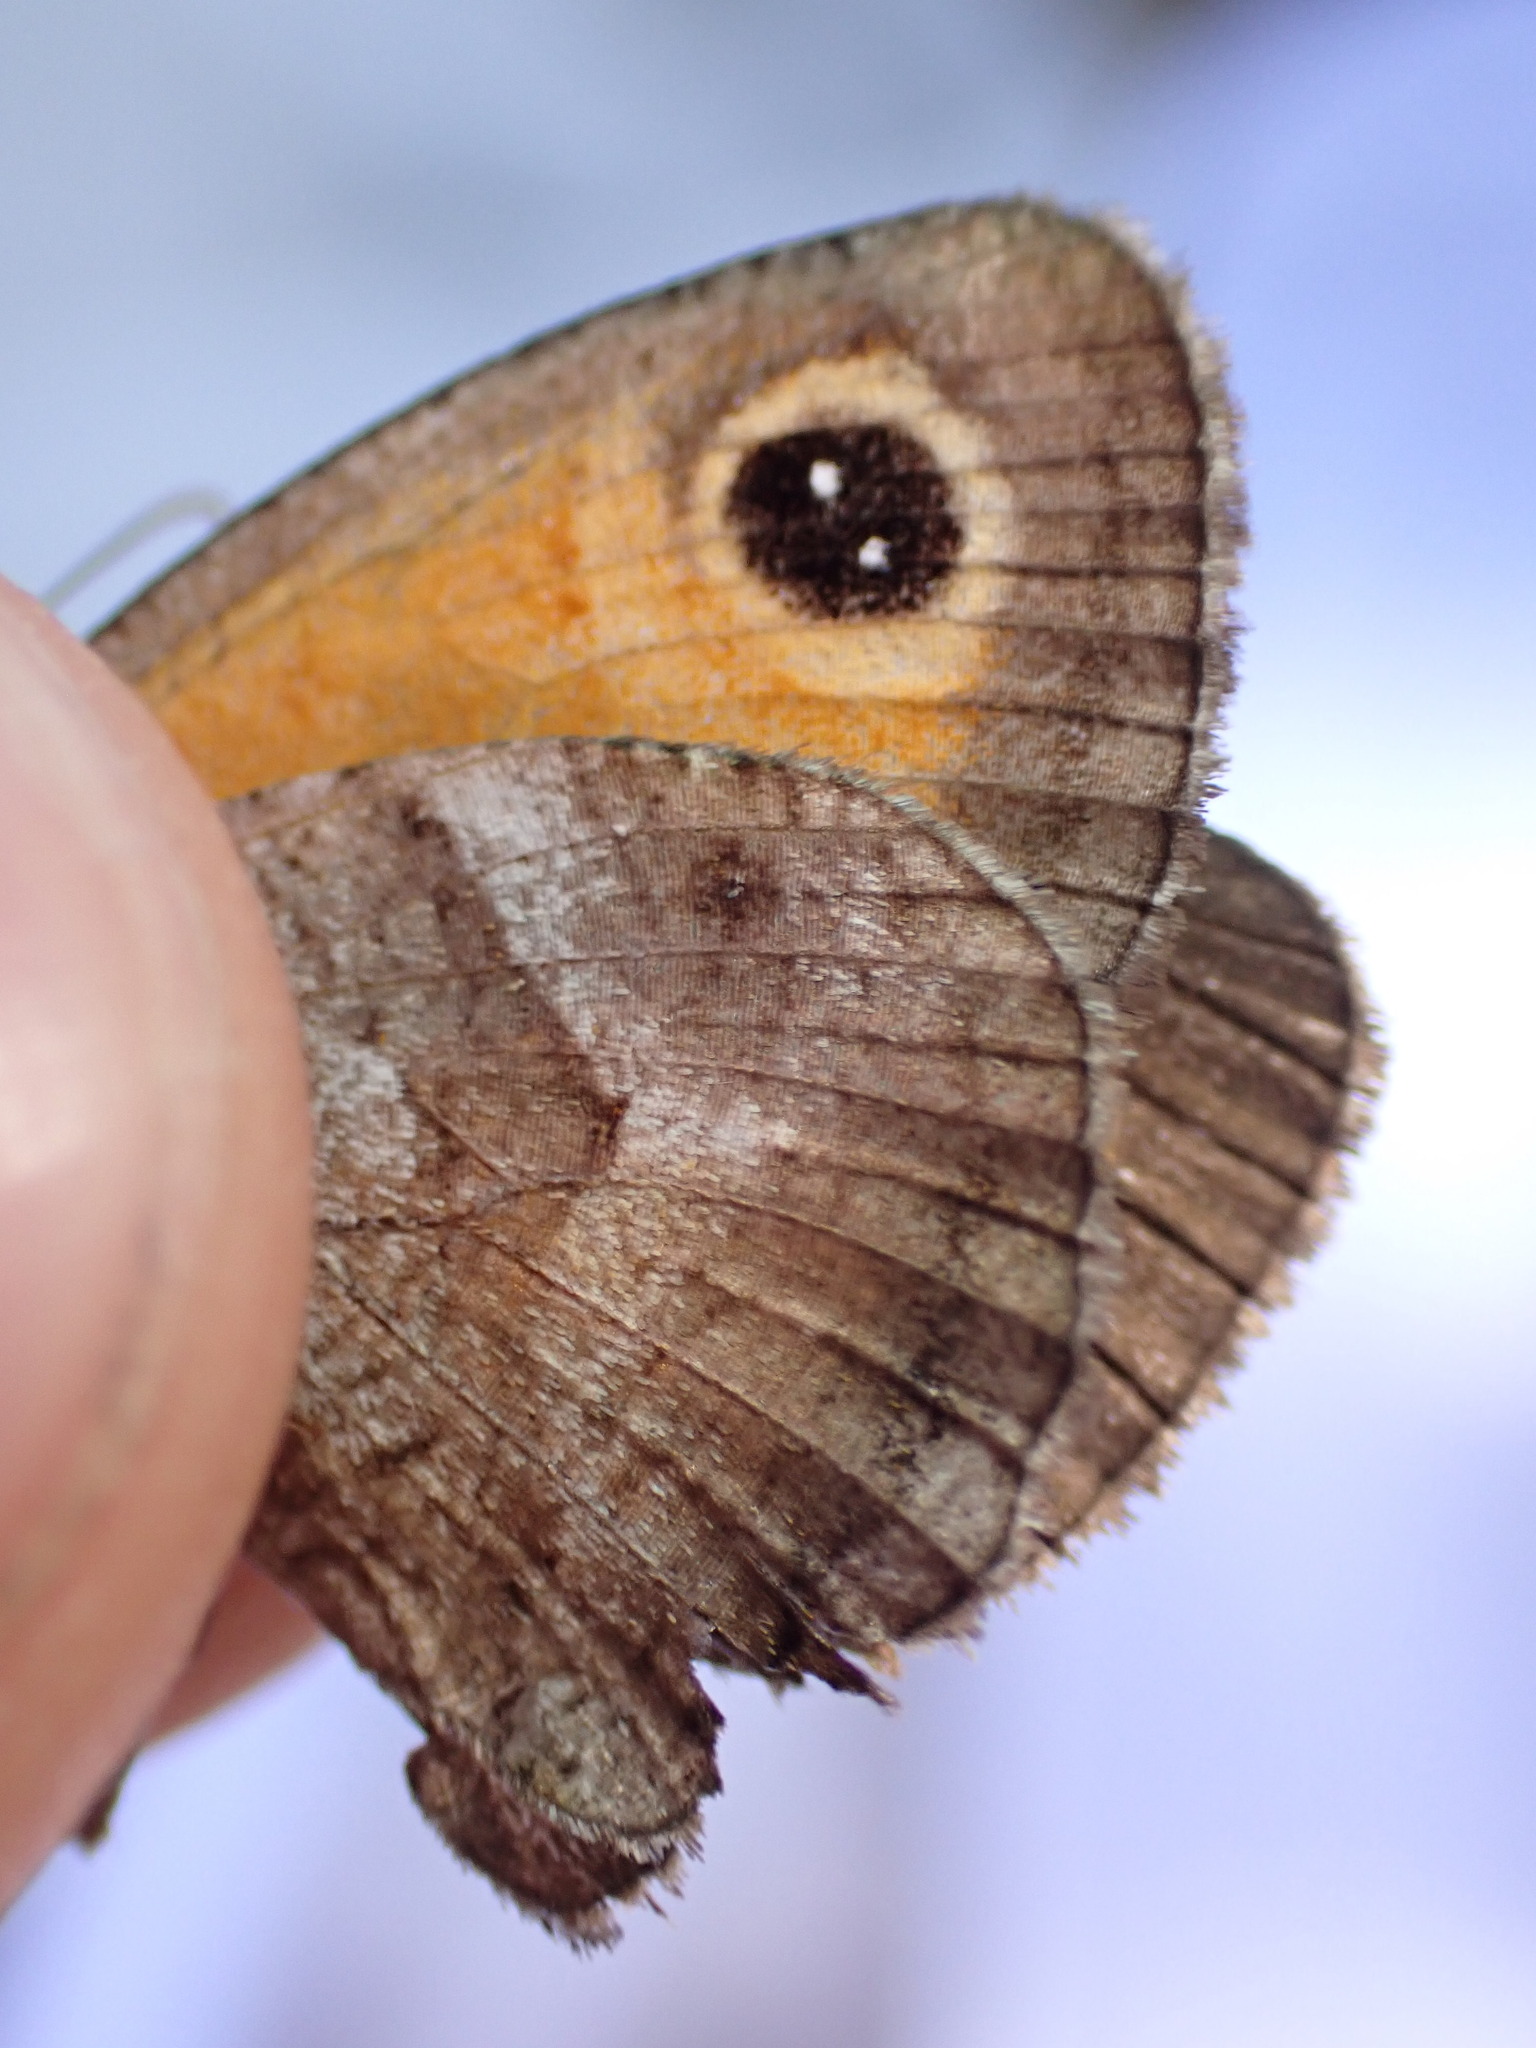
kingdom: Animalia
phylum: Arthropoda
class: Insecta
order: Lepidoptera
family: Nymphalidae
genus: Pyronia
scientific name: Pyronia cecilia
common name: Southern gatekeeper
